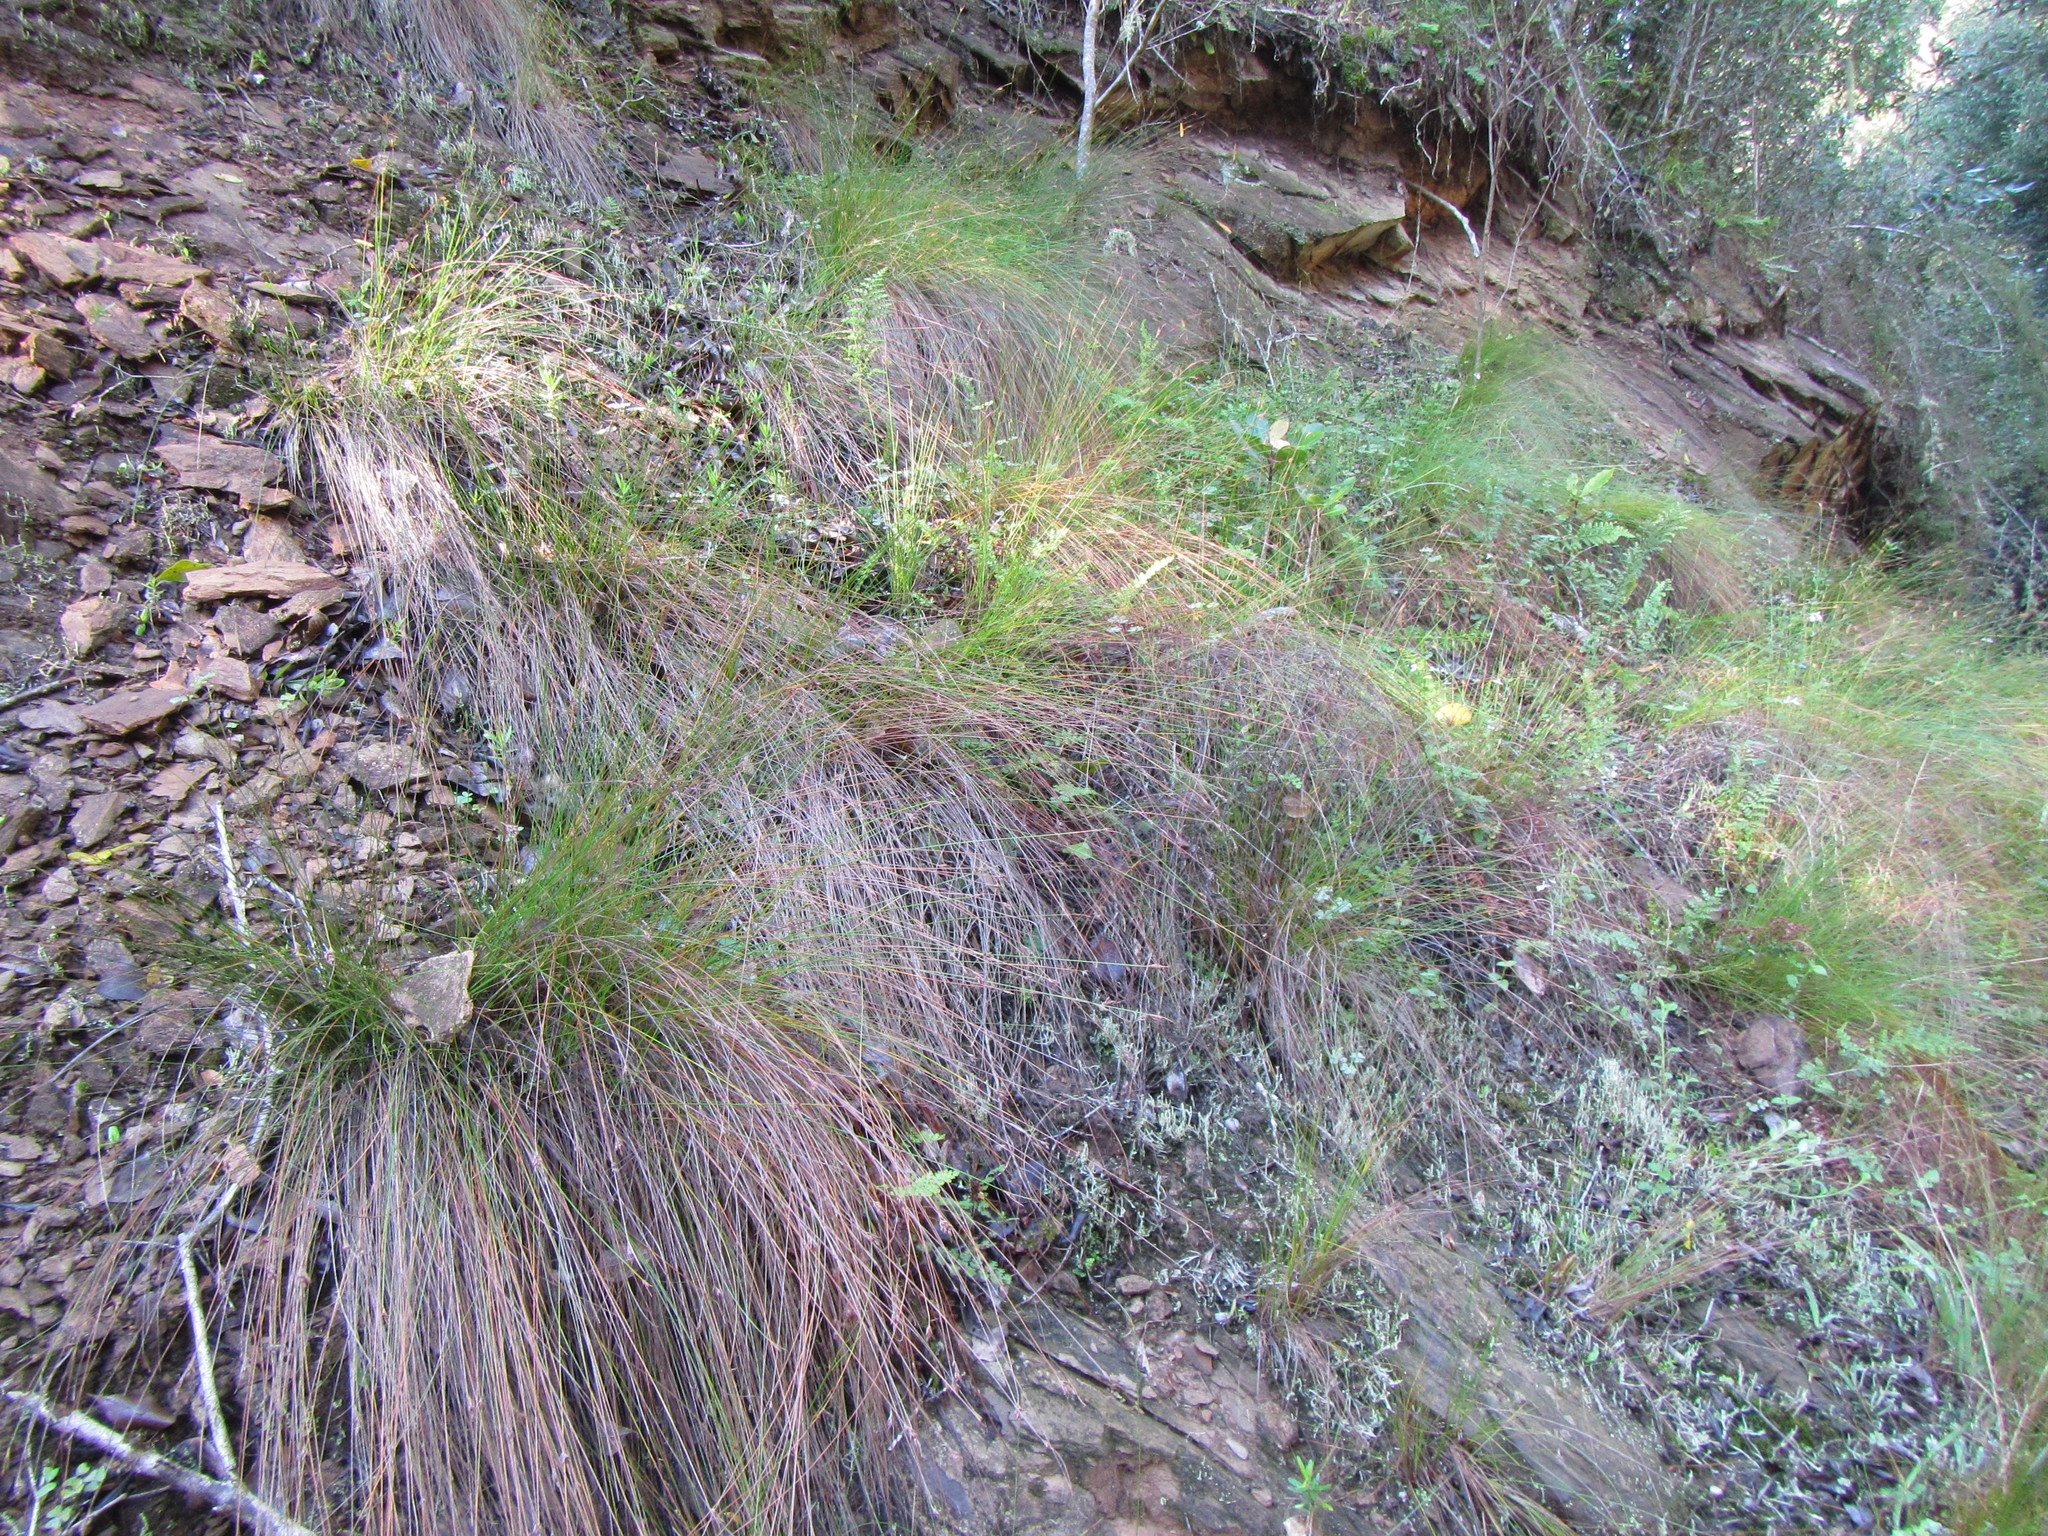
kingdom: Plantae
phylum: Tracheophyta
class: Liliopsida
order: Poales
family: Cyperaceae
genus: Ficinia
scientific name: Ficinia fascicularis
